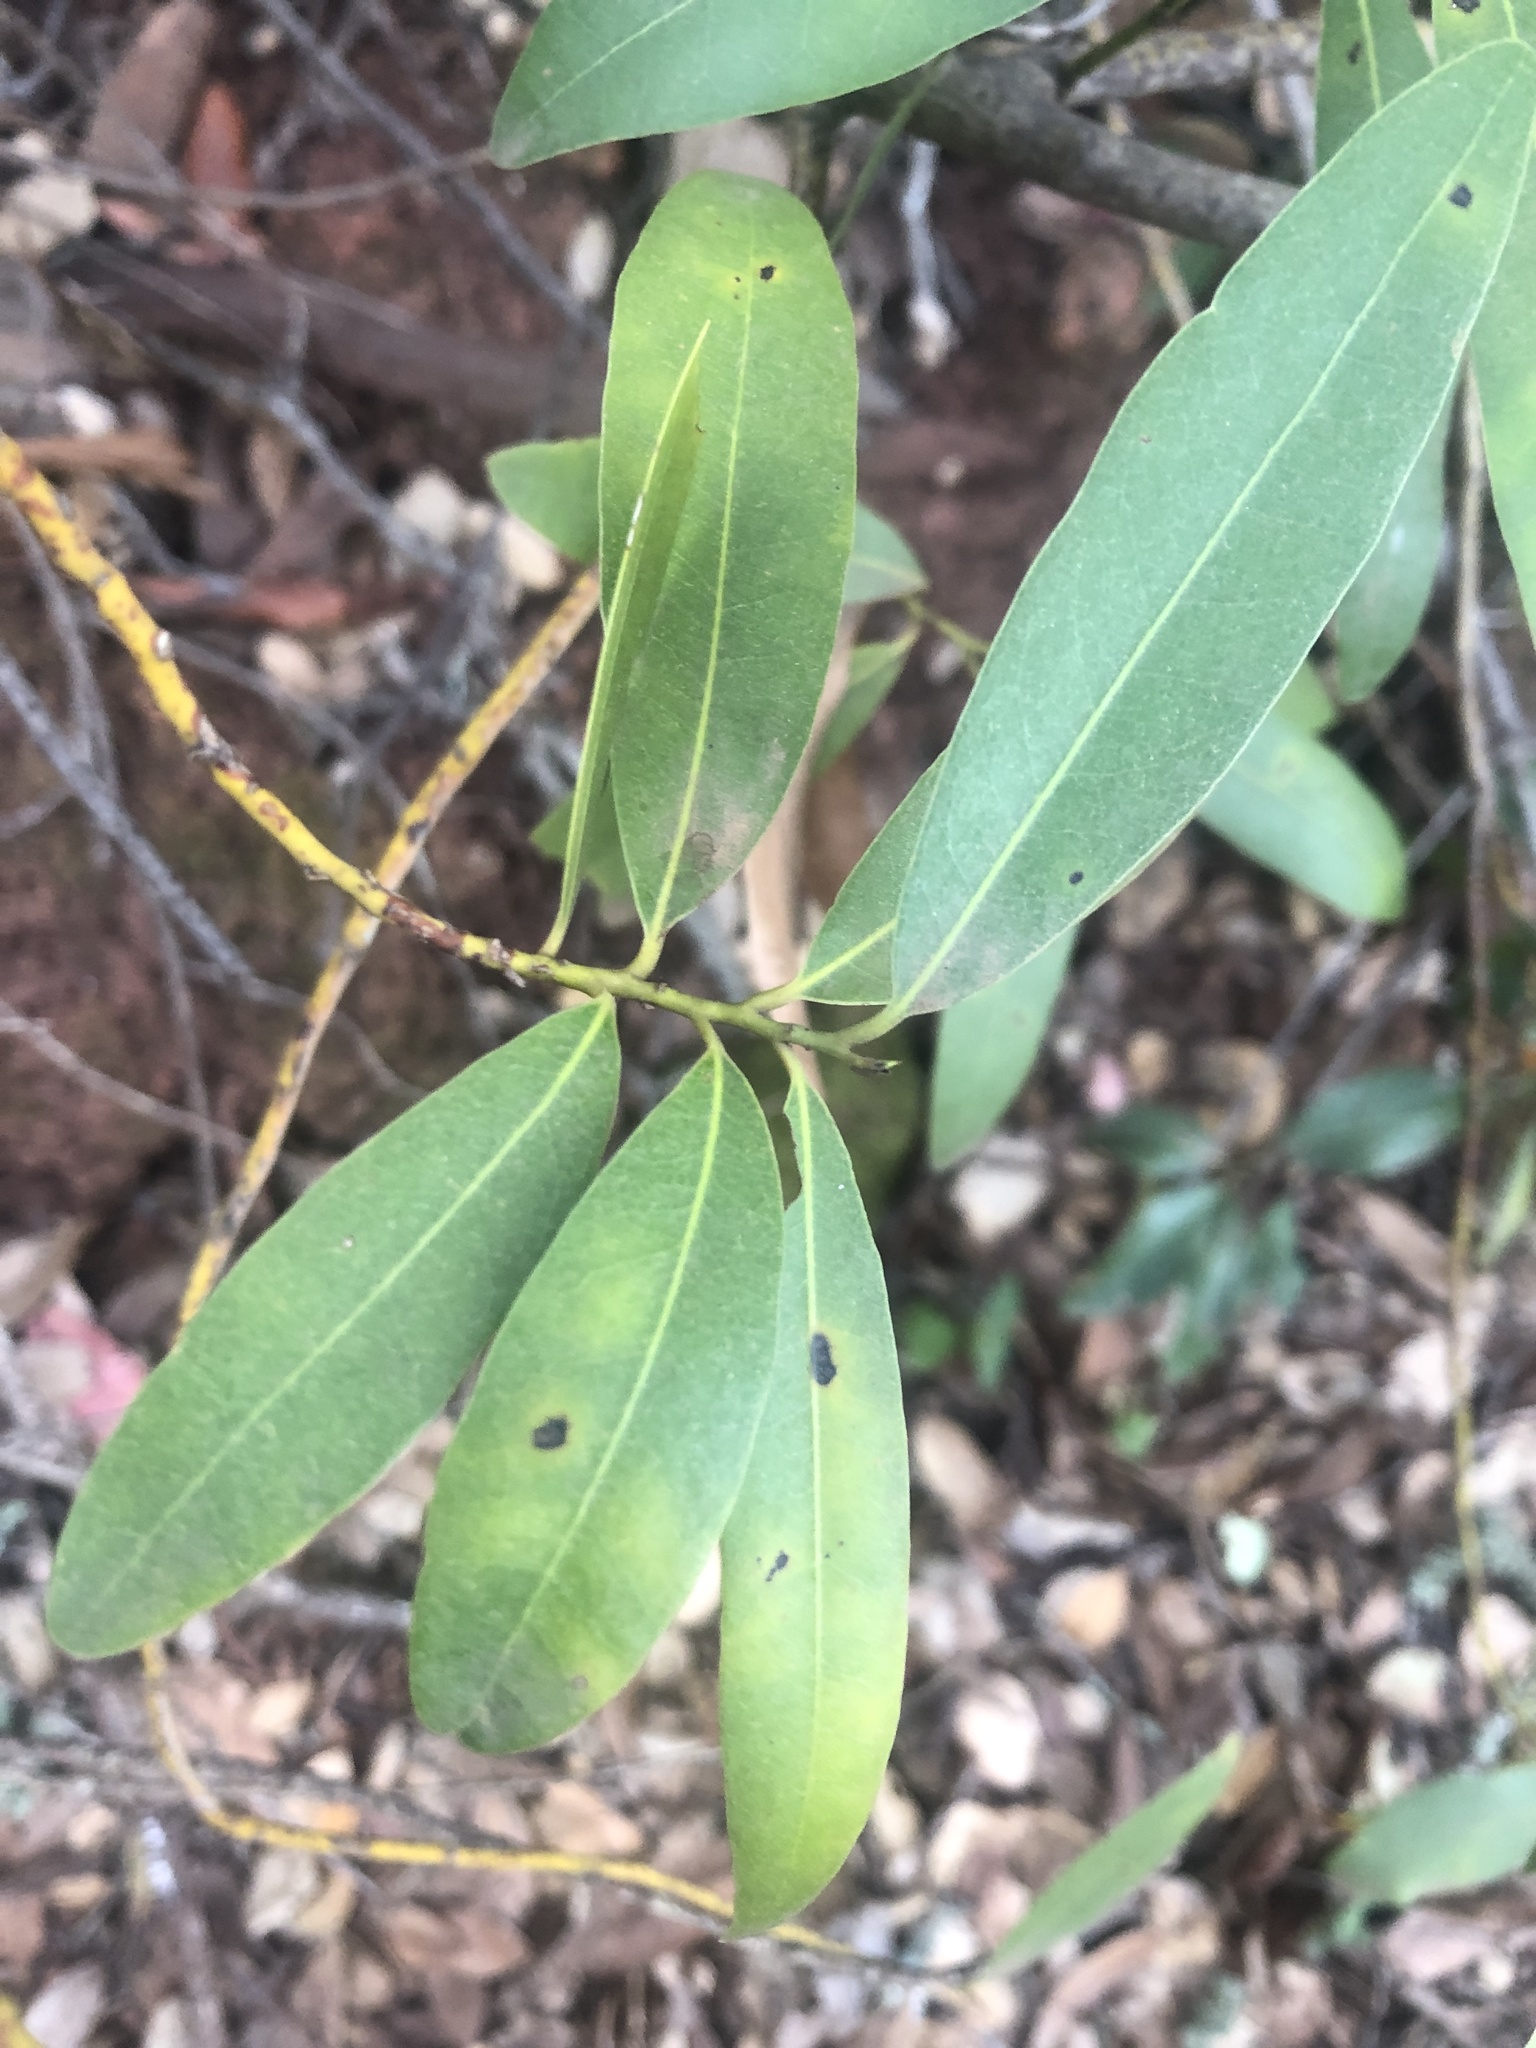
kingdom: Plantae
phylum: Tracheophyta
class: Magnoliopsida
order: Laurales
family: Lauraceae
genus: Umbellularia
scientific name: Umbellularia californica
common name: California bay
